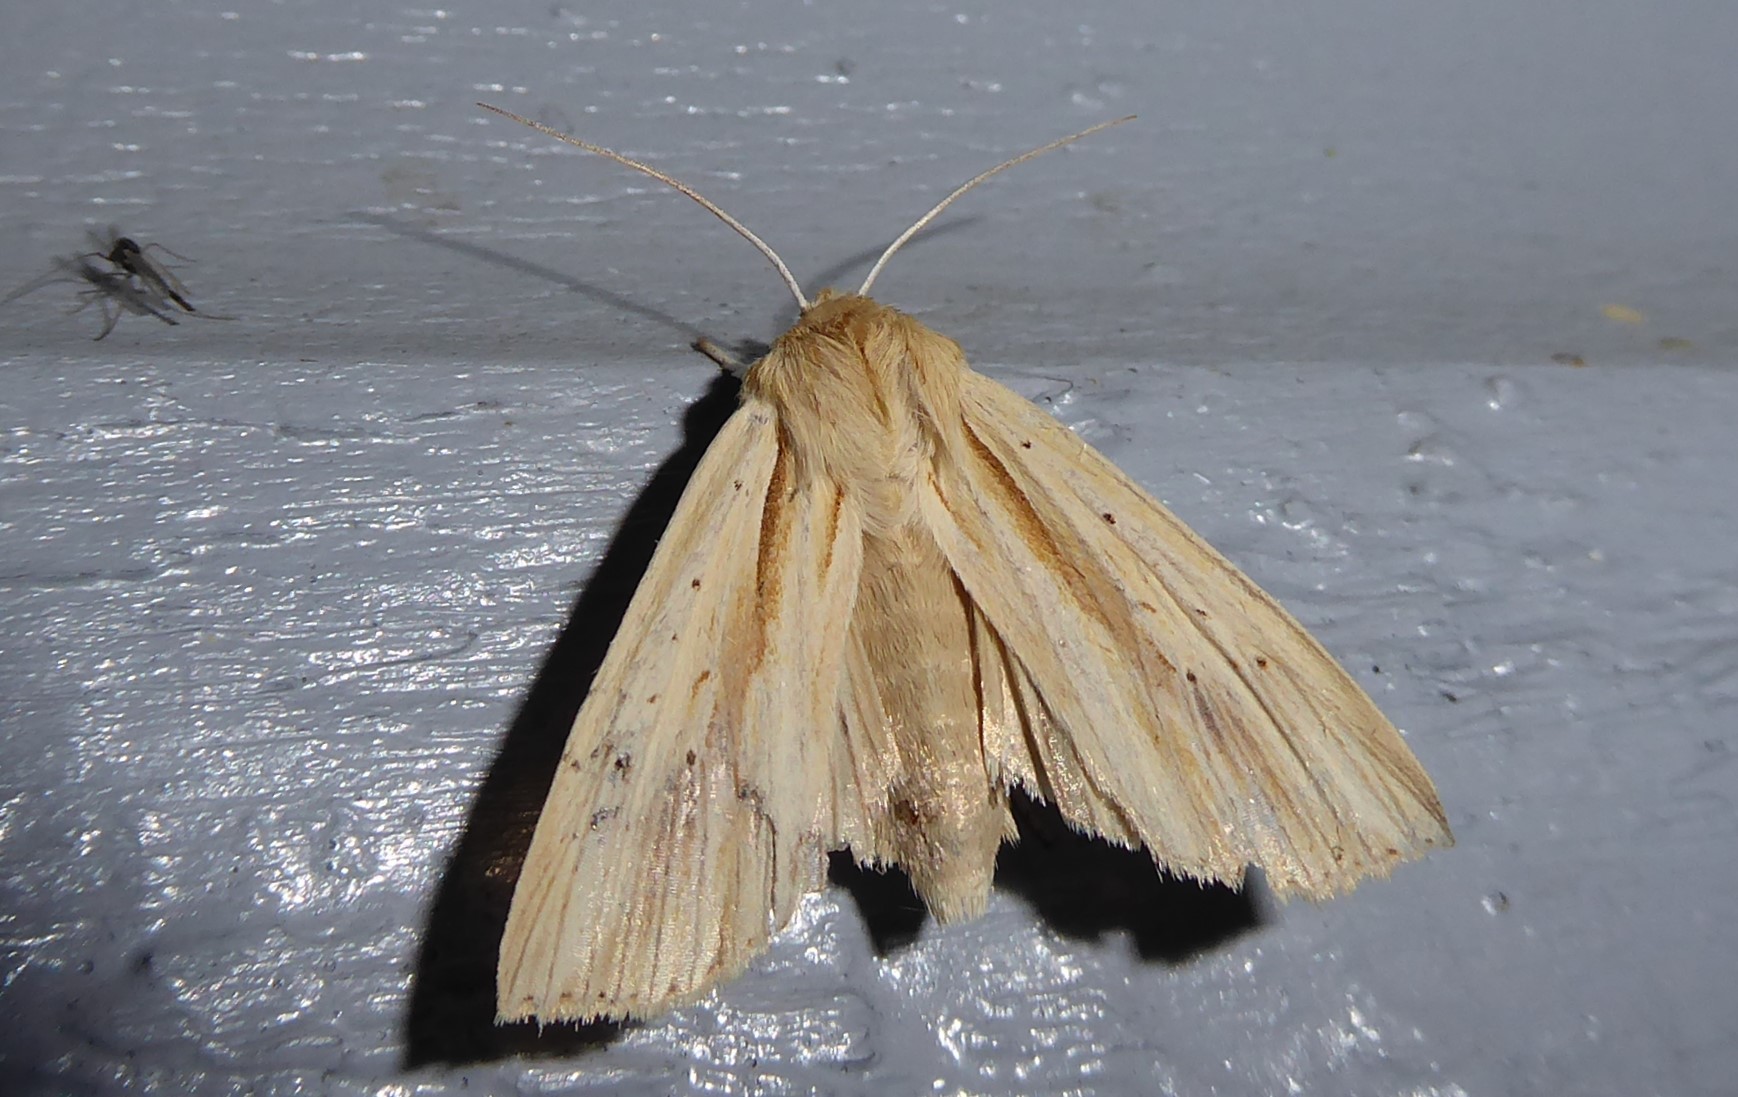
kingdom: Animalia
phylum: Arthropoda
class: Insecta
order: Lepidoptera
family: Noctuidae
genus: Ichneutica
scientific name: Ichneutica semivittata
